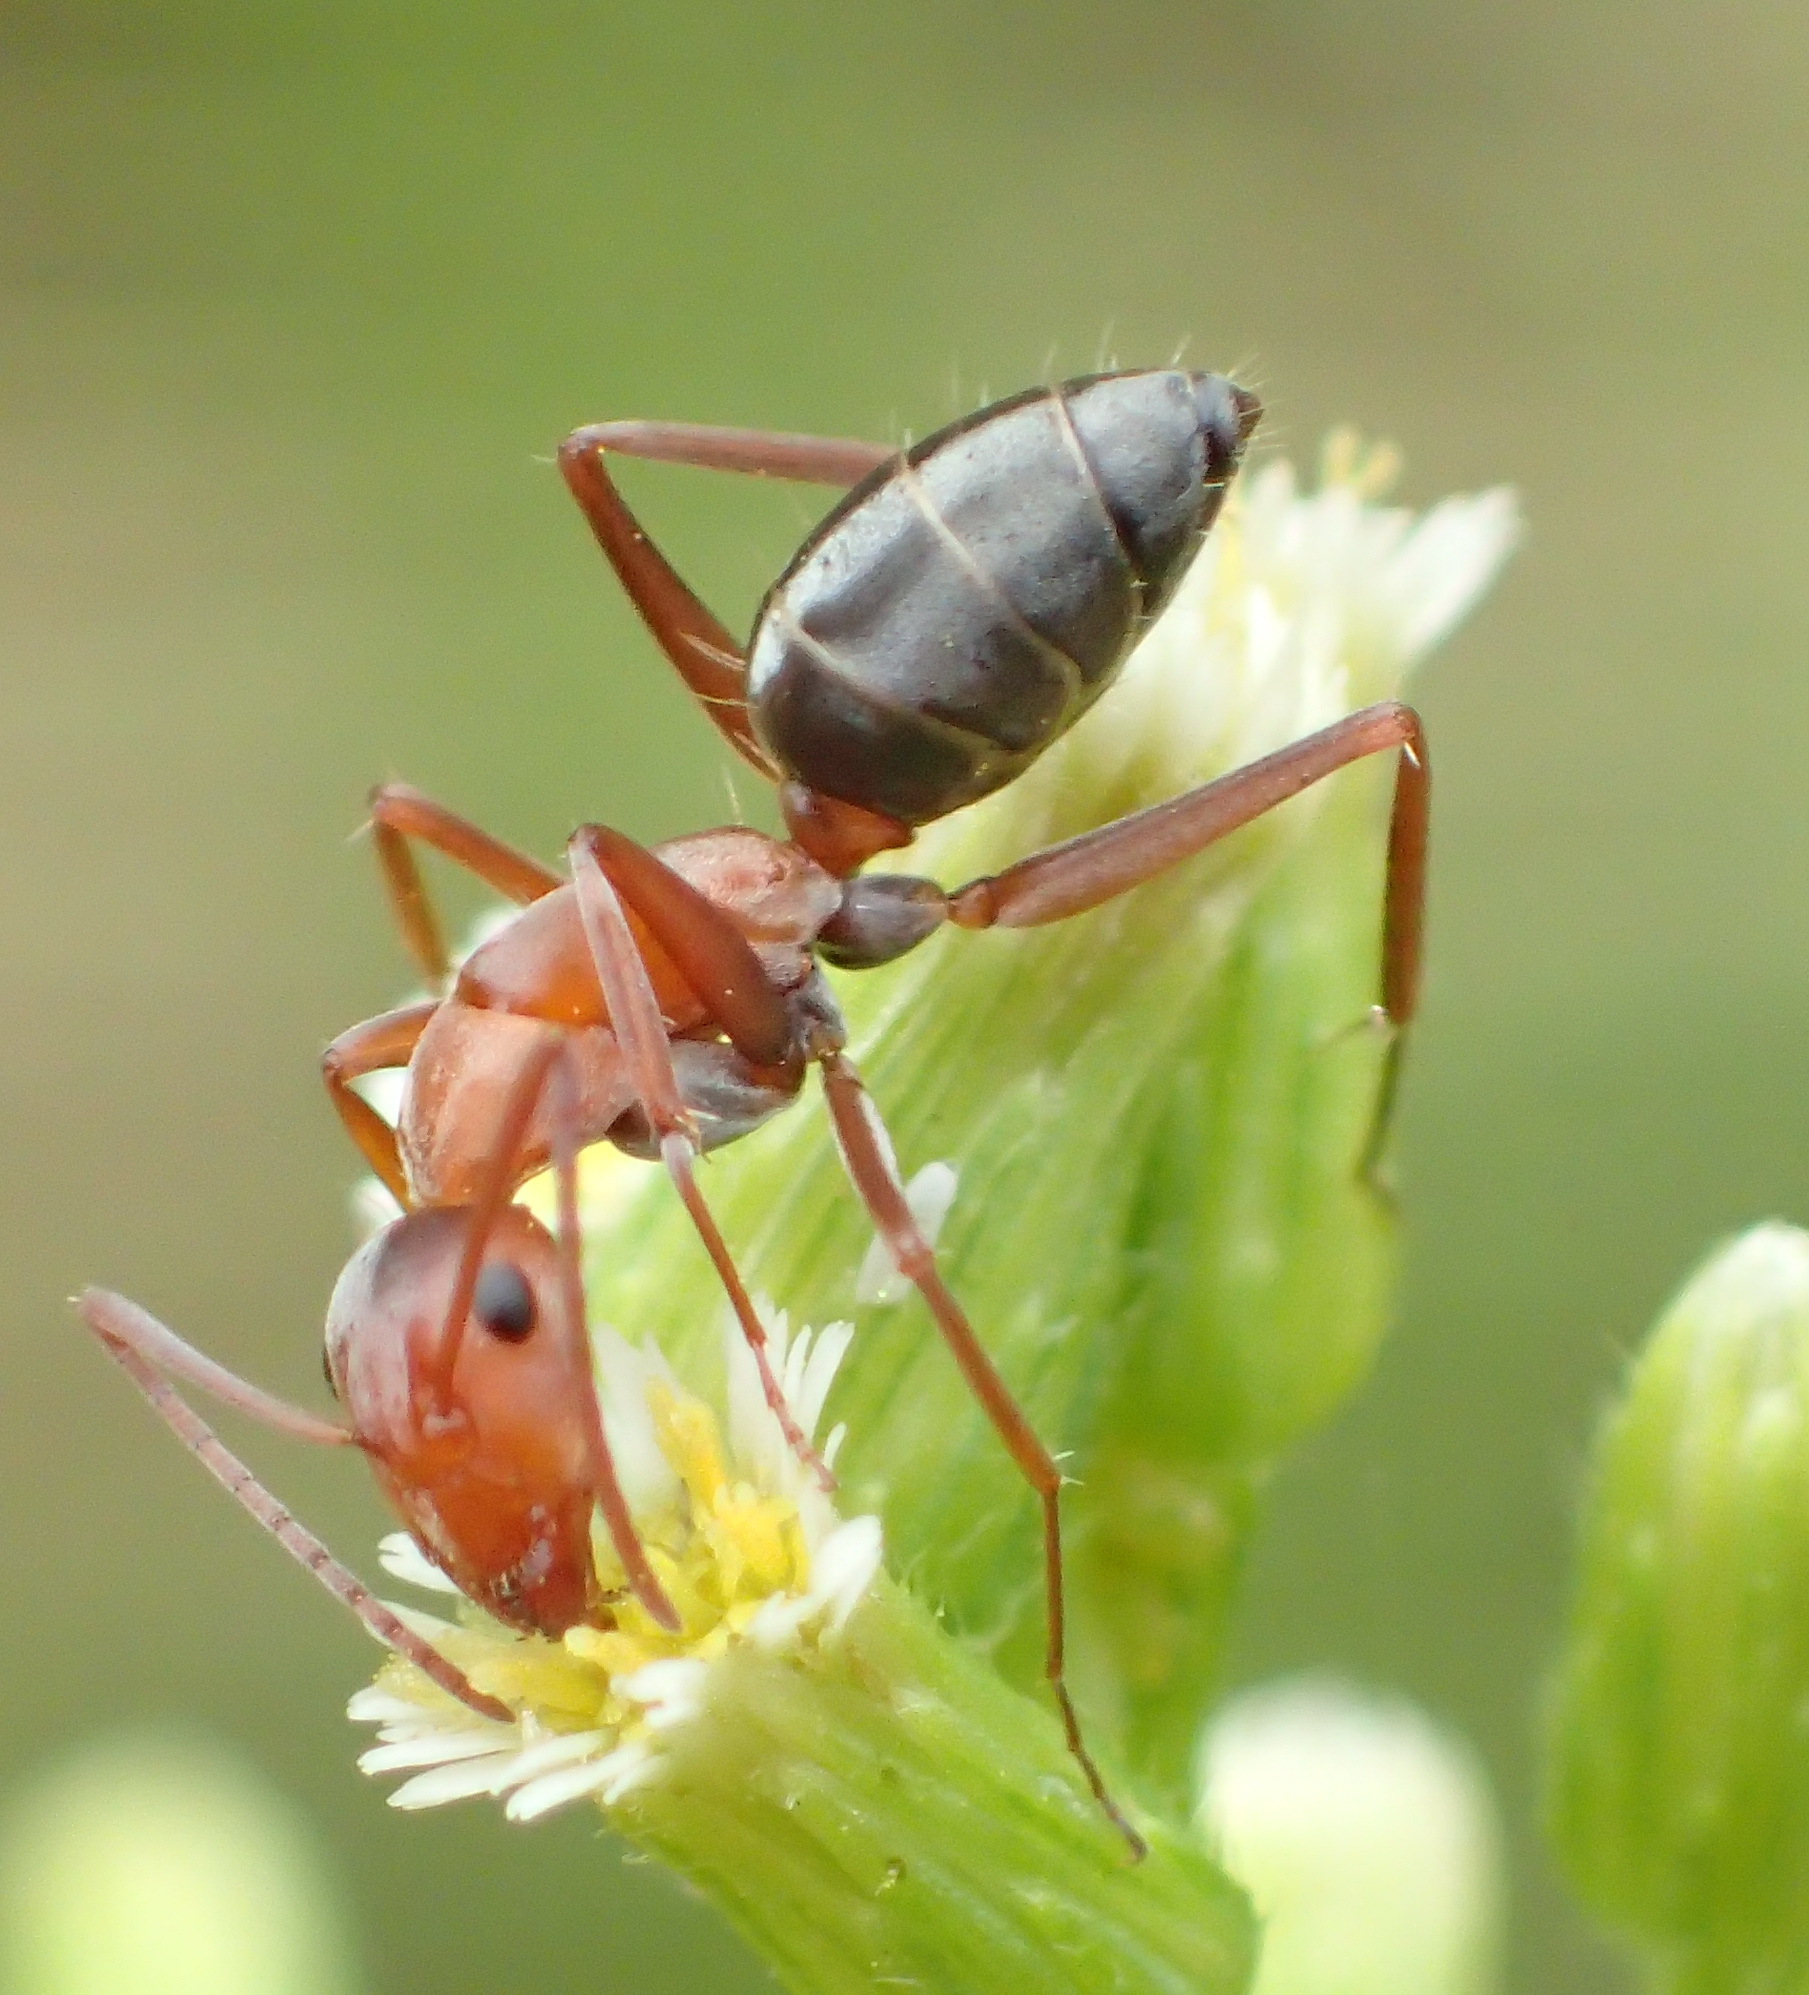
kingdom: Animalia
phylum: Arthropoda
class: Insecta
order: Hymenoptera
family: Formicidae
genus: Camponotus
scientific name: Camponotus vestitus
